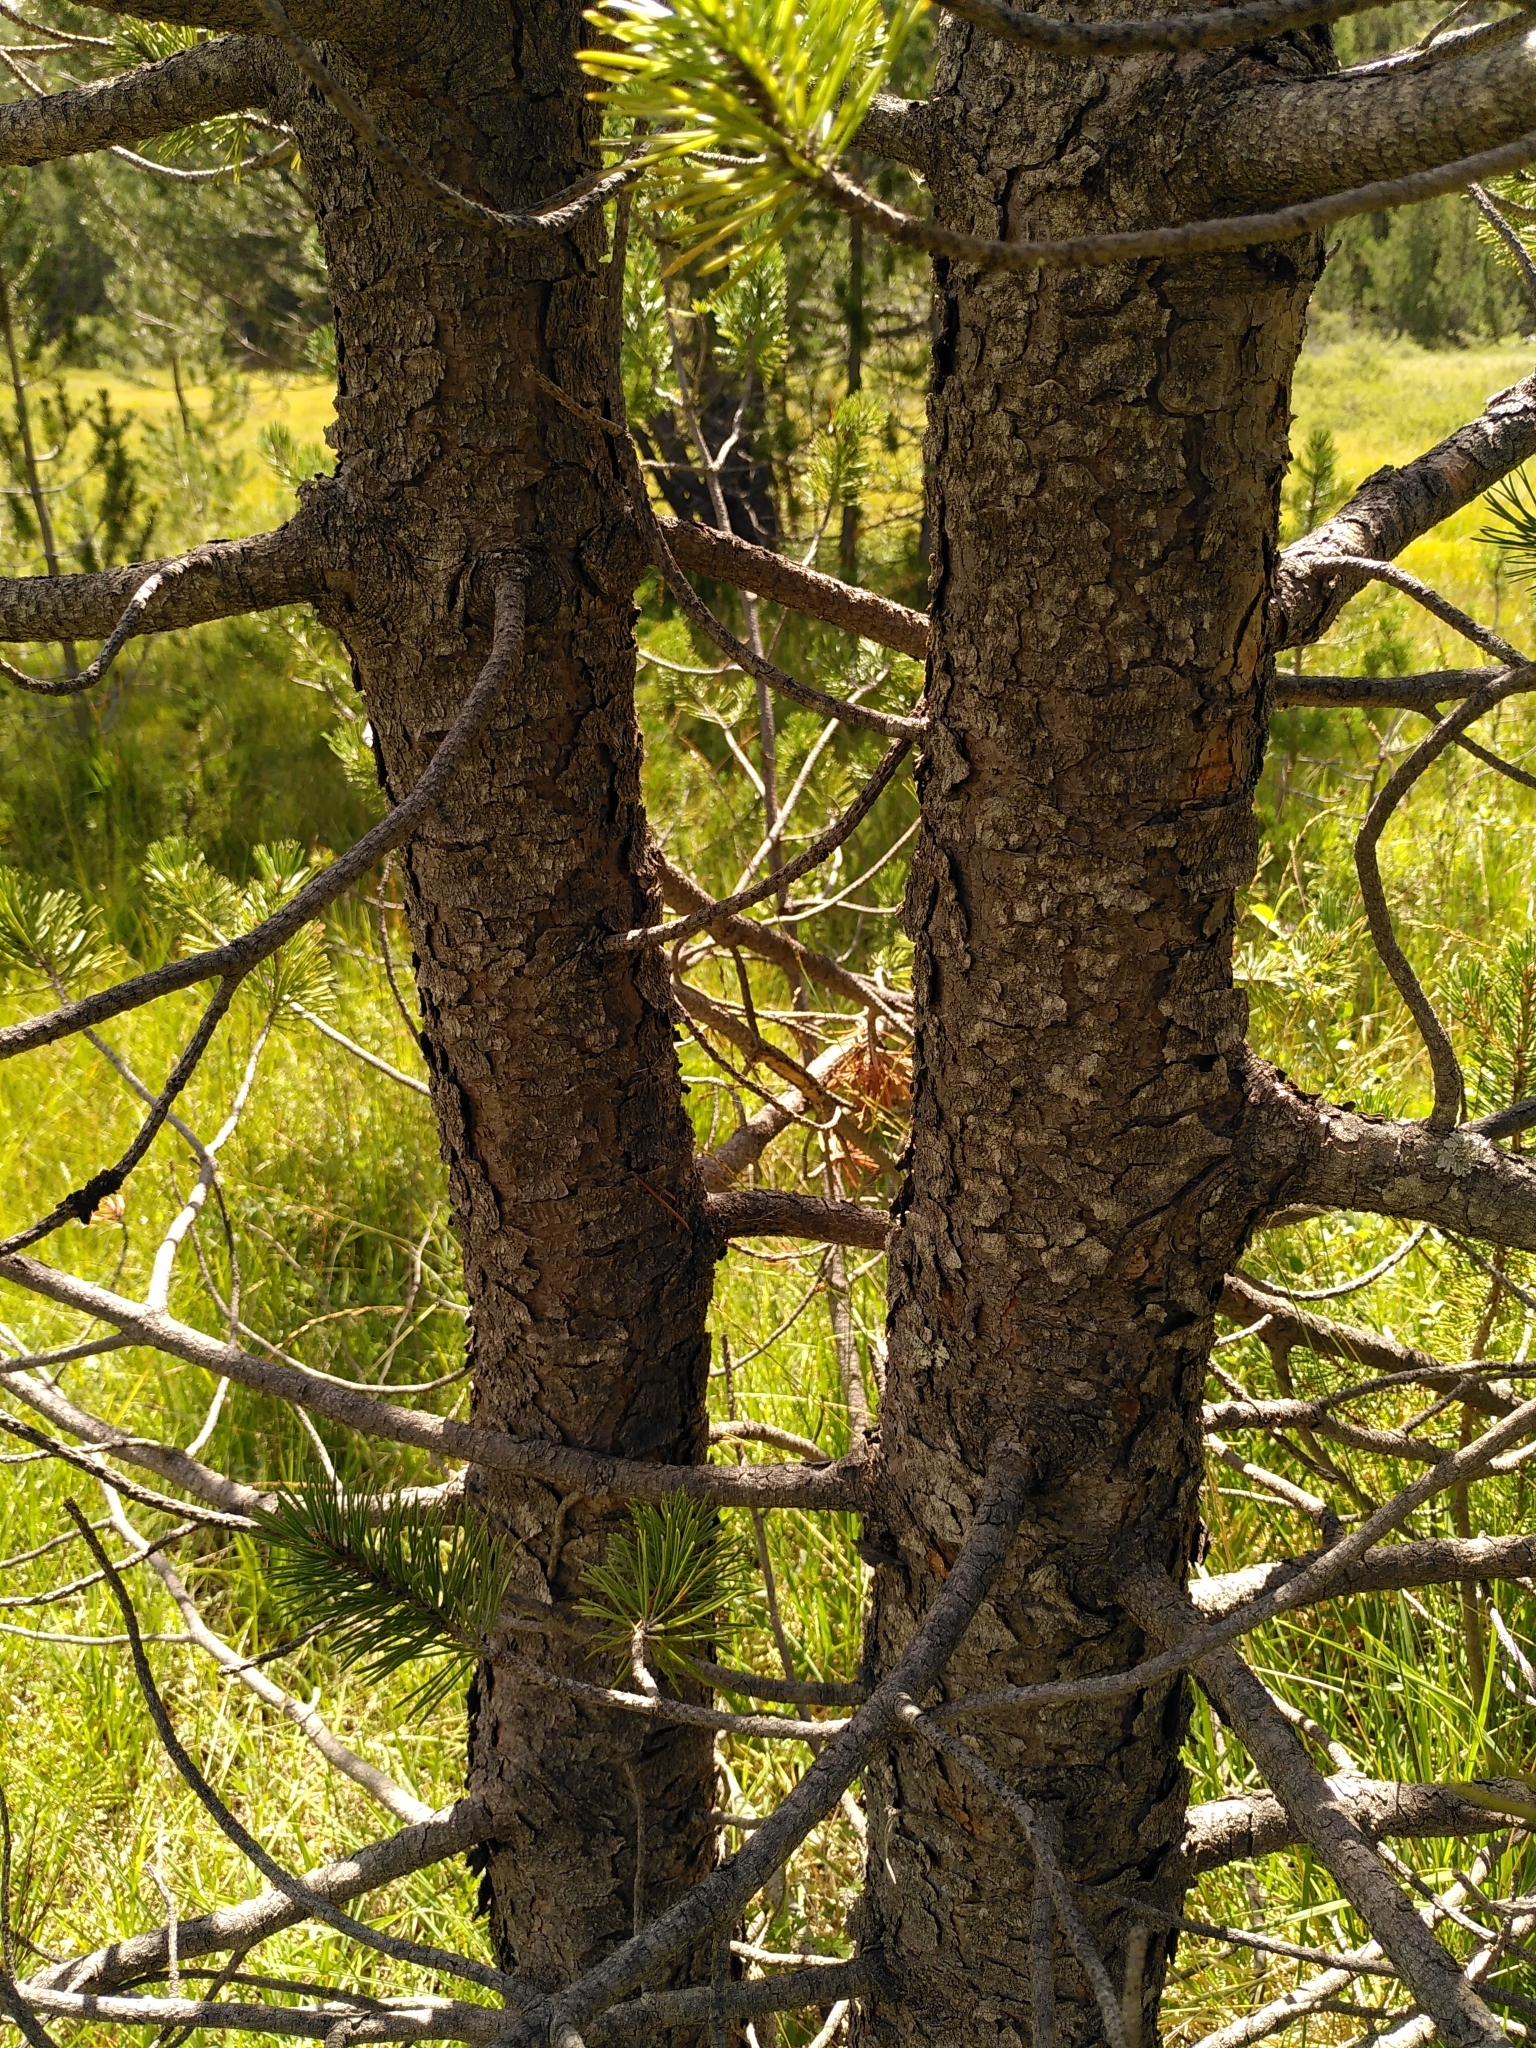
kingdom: Plantae
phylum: Tracheophyta
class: Pinopsida
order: Pinales
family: Pinaceae
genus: Pinus
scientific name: Pinus uncinata
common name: Mountain pine
